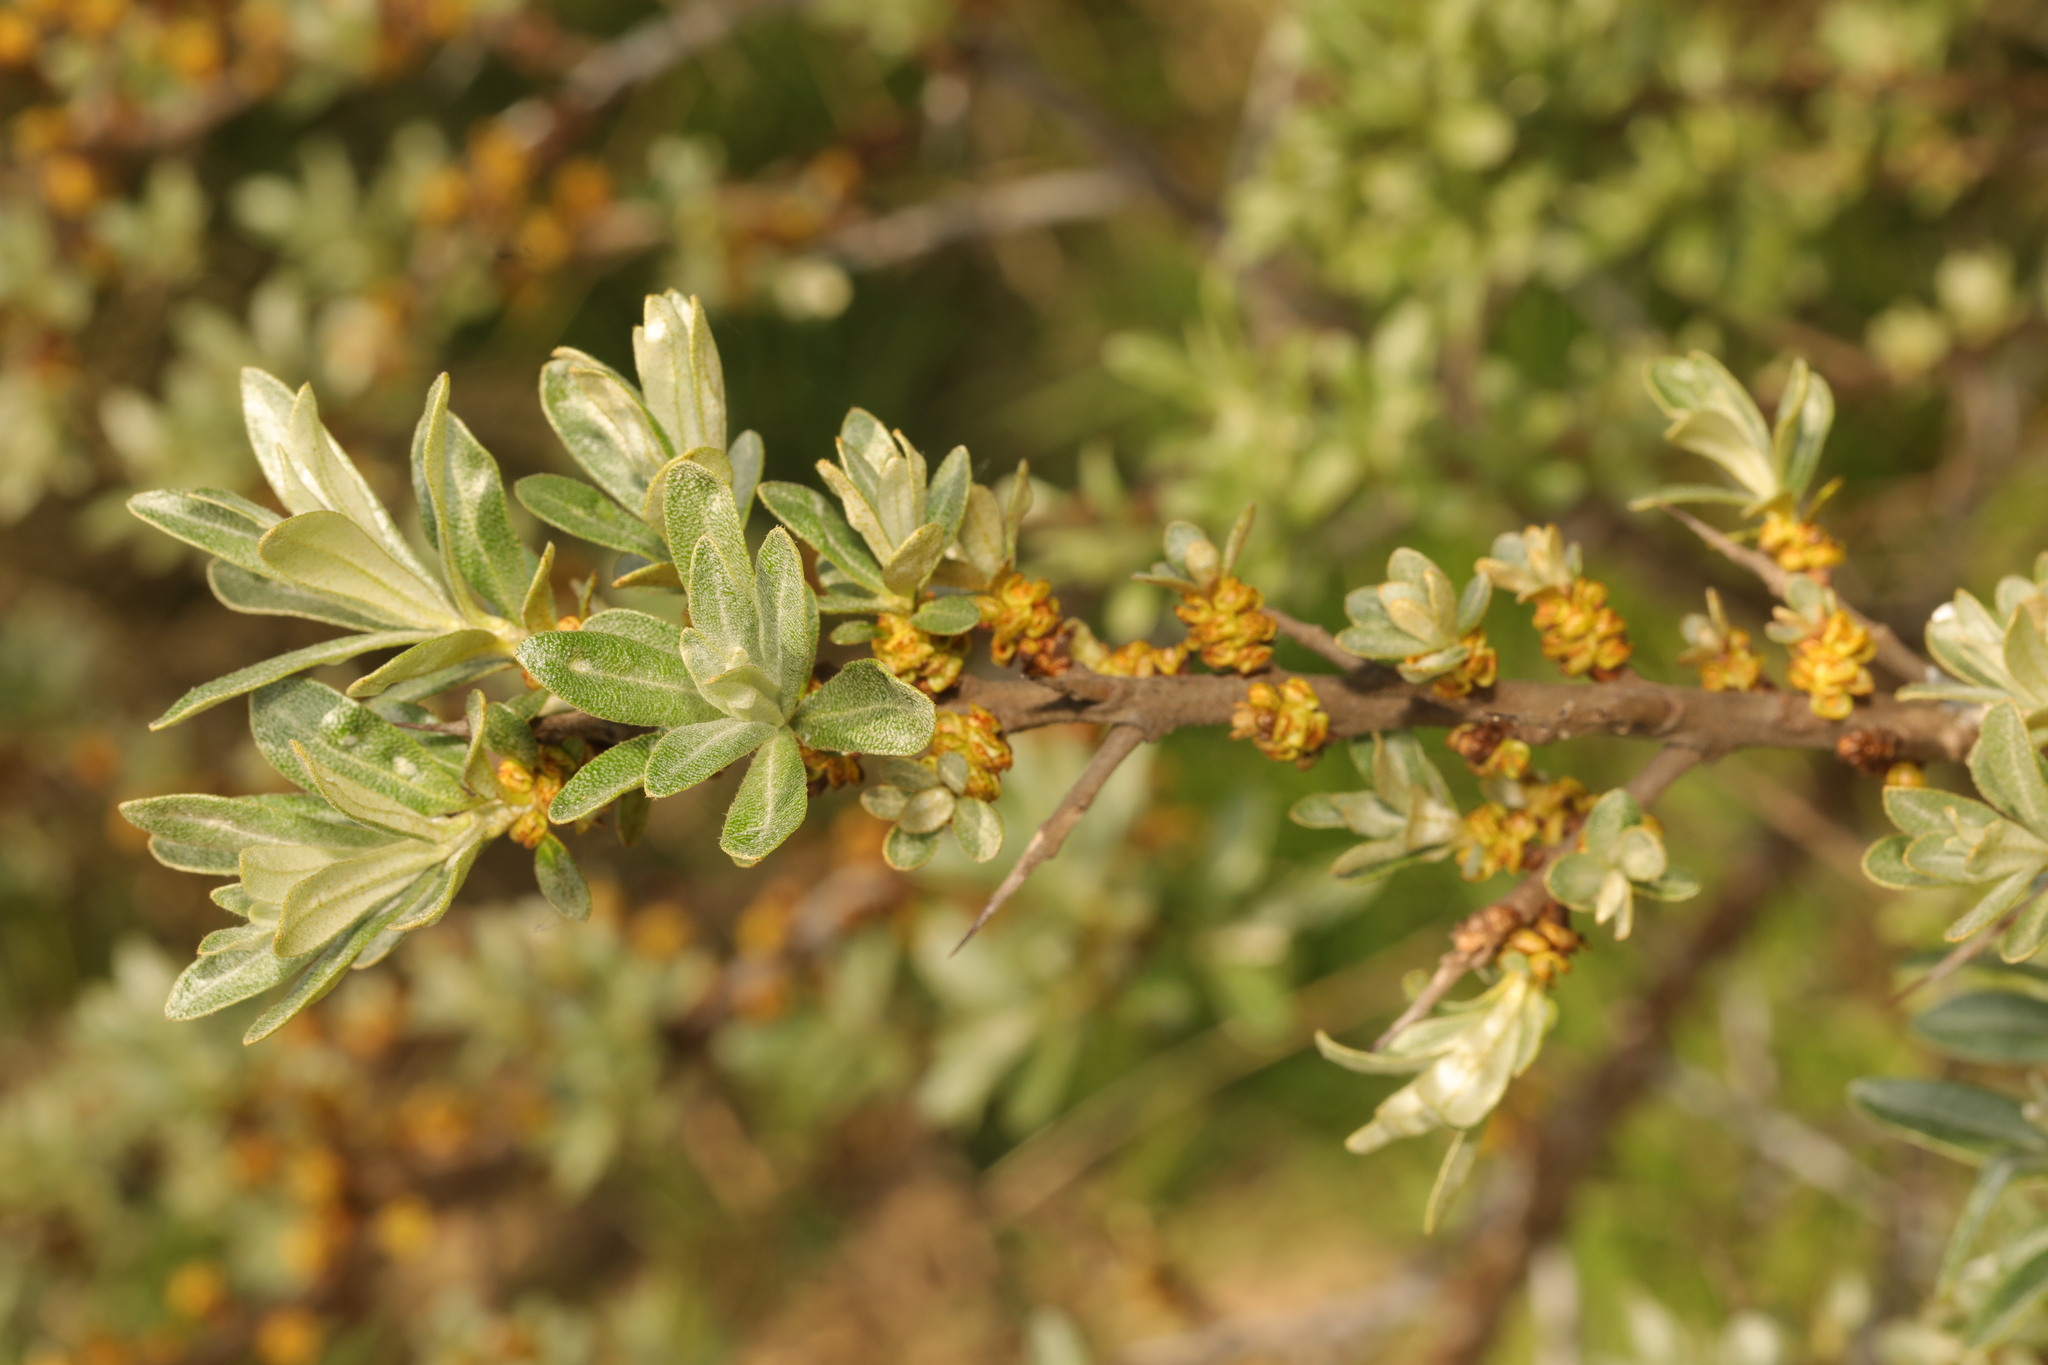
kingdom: Plantae
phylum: Tracheophyta
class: Magnoliopsida
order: Rosales
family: Elaeagnaceae
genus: Hippophae
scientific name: Hippophae rhamnoides
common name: Sea-buckthorn
